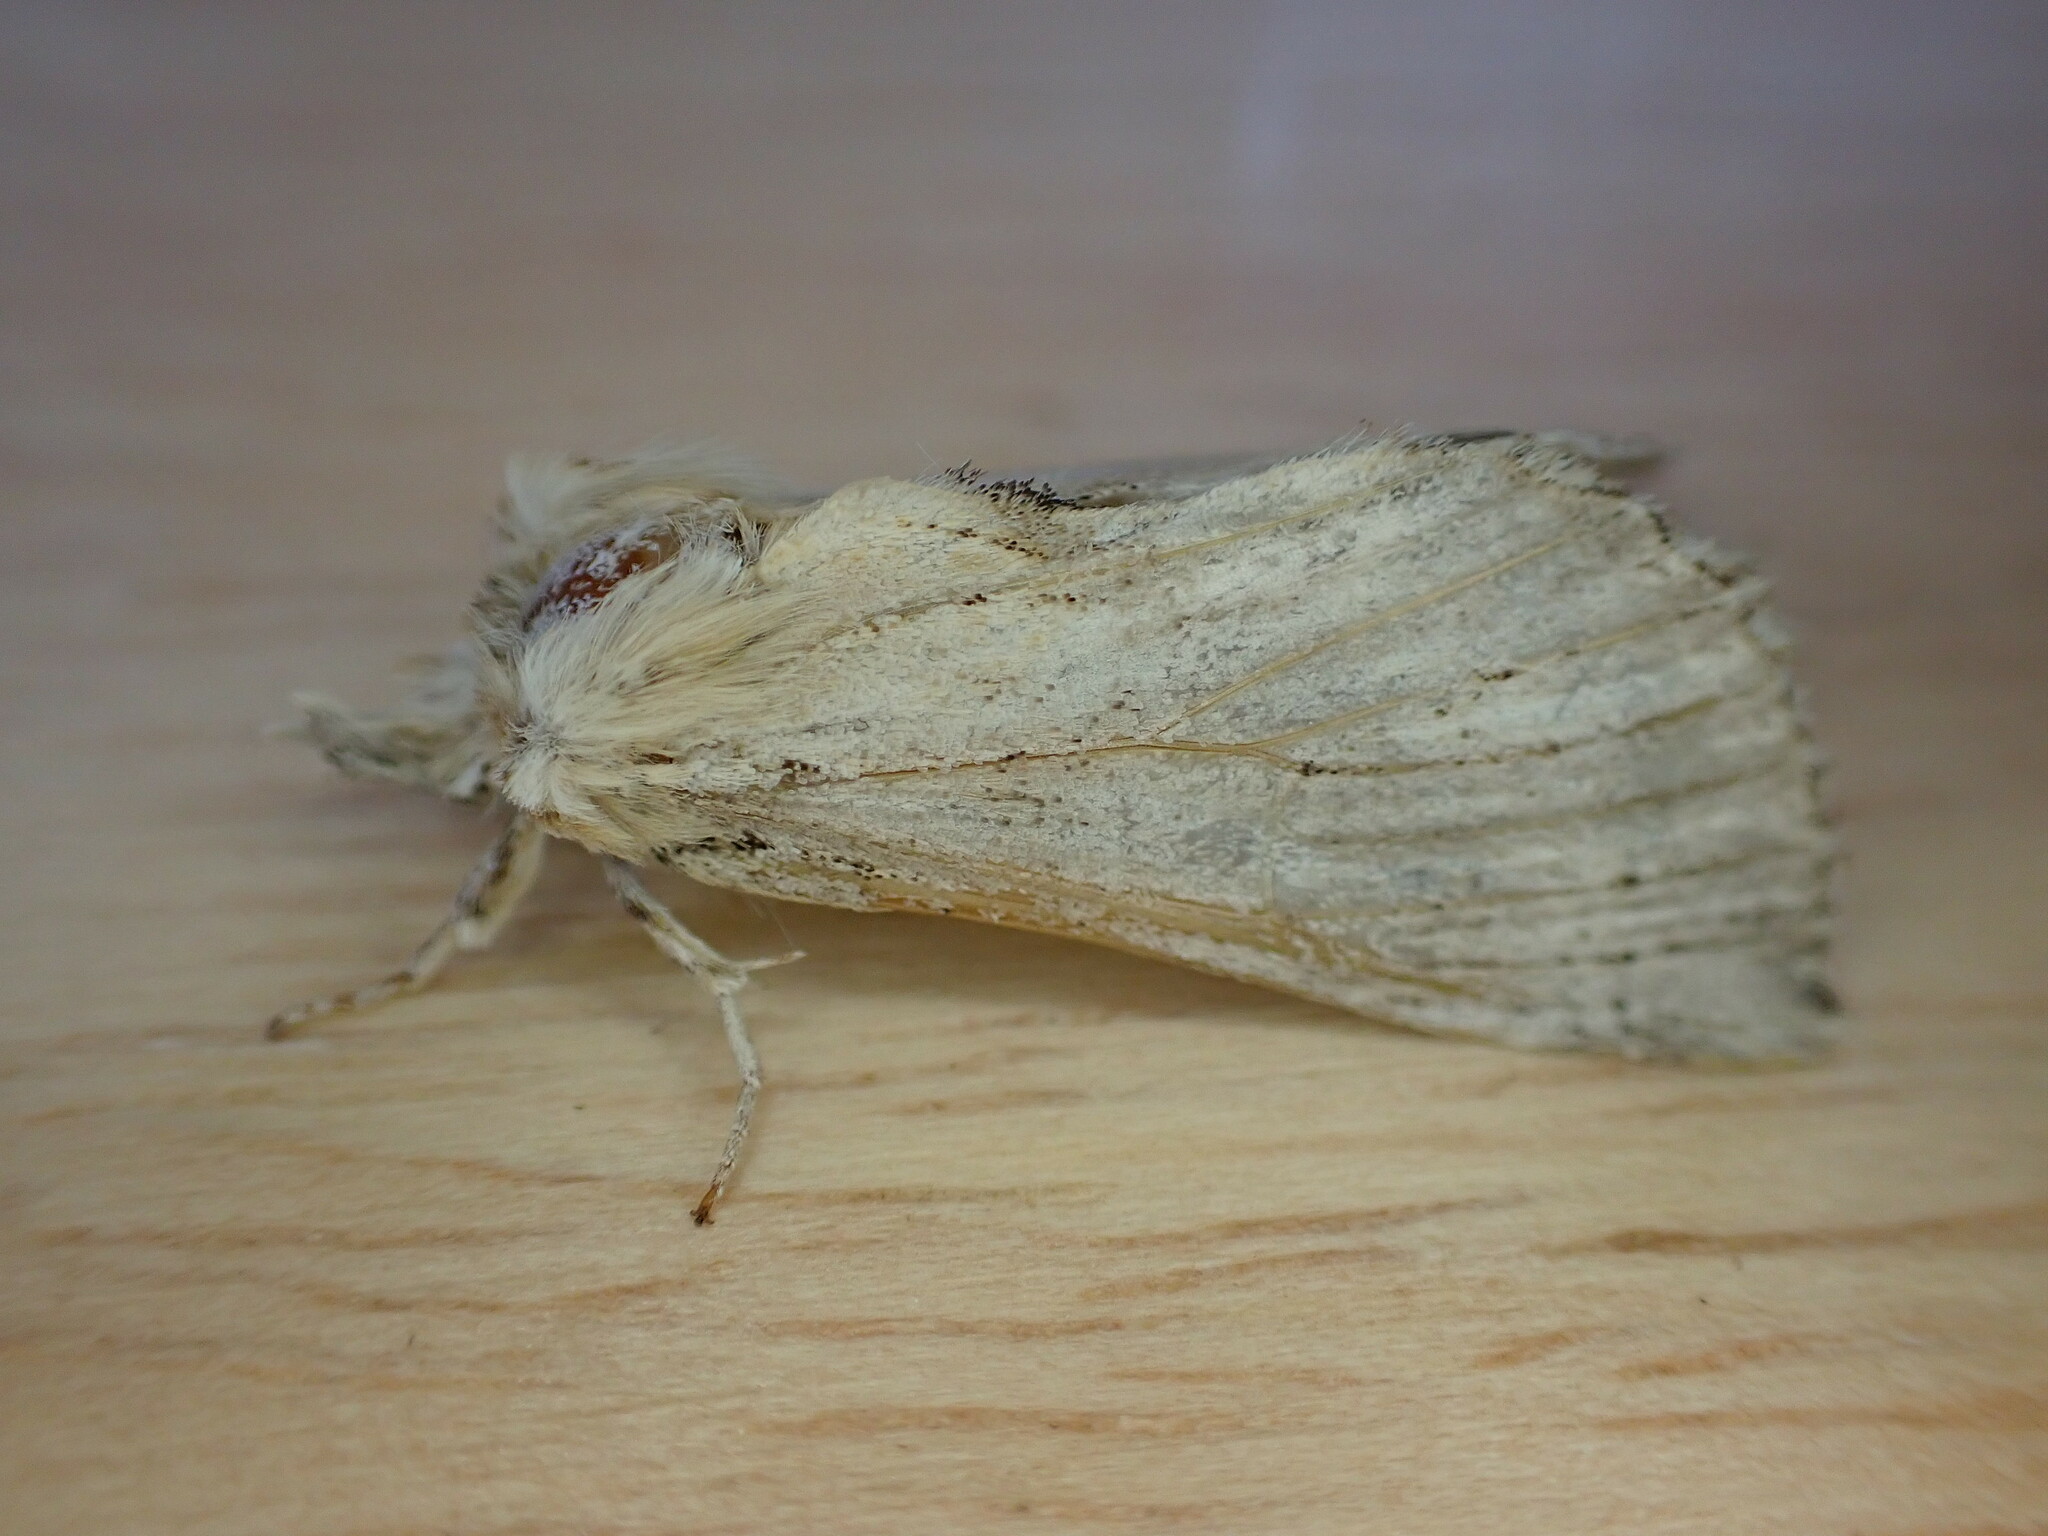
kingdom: Animalia
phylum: Arthropoda
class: Insecta
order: Lepidoptera
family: Notodontidae
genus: Pterostoma
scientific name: Pterostoma palpina
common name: Pale prominent
